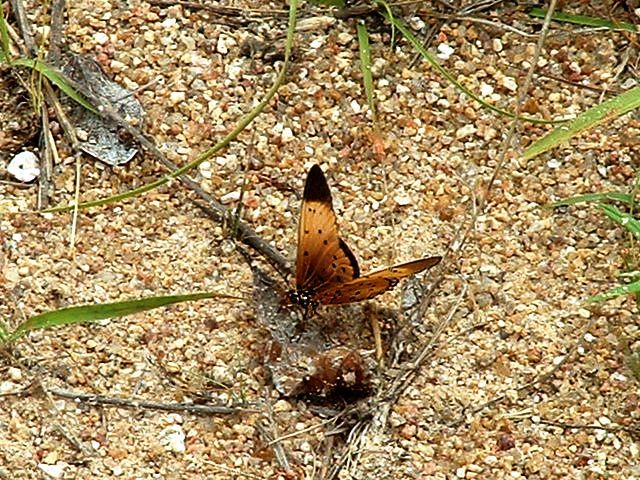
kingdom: Animalia
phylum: Arthropoda
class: Insecta
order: Lepidoptera
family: Nymphalidae
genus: Stephenia
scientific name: Stephenia
